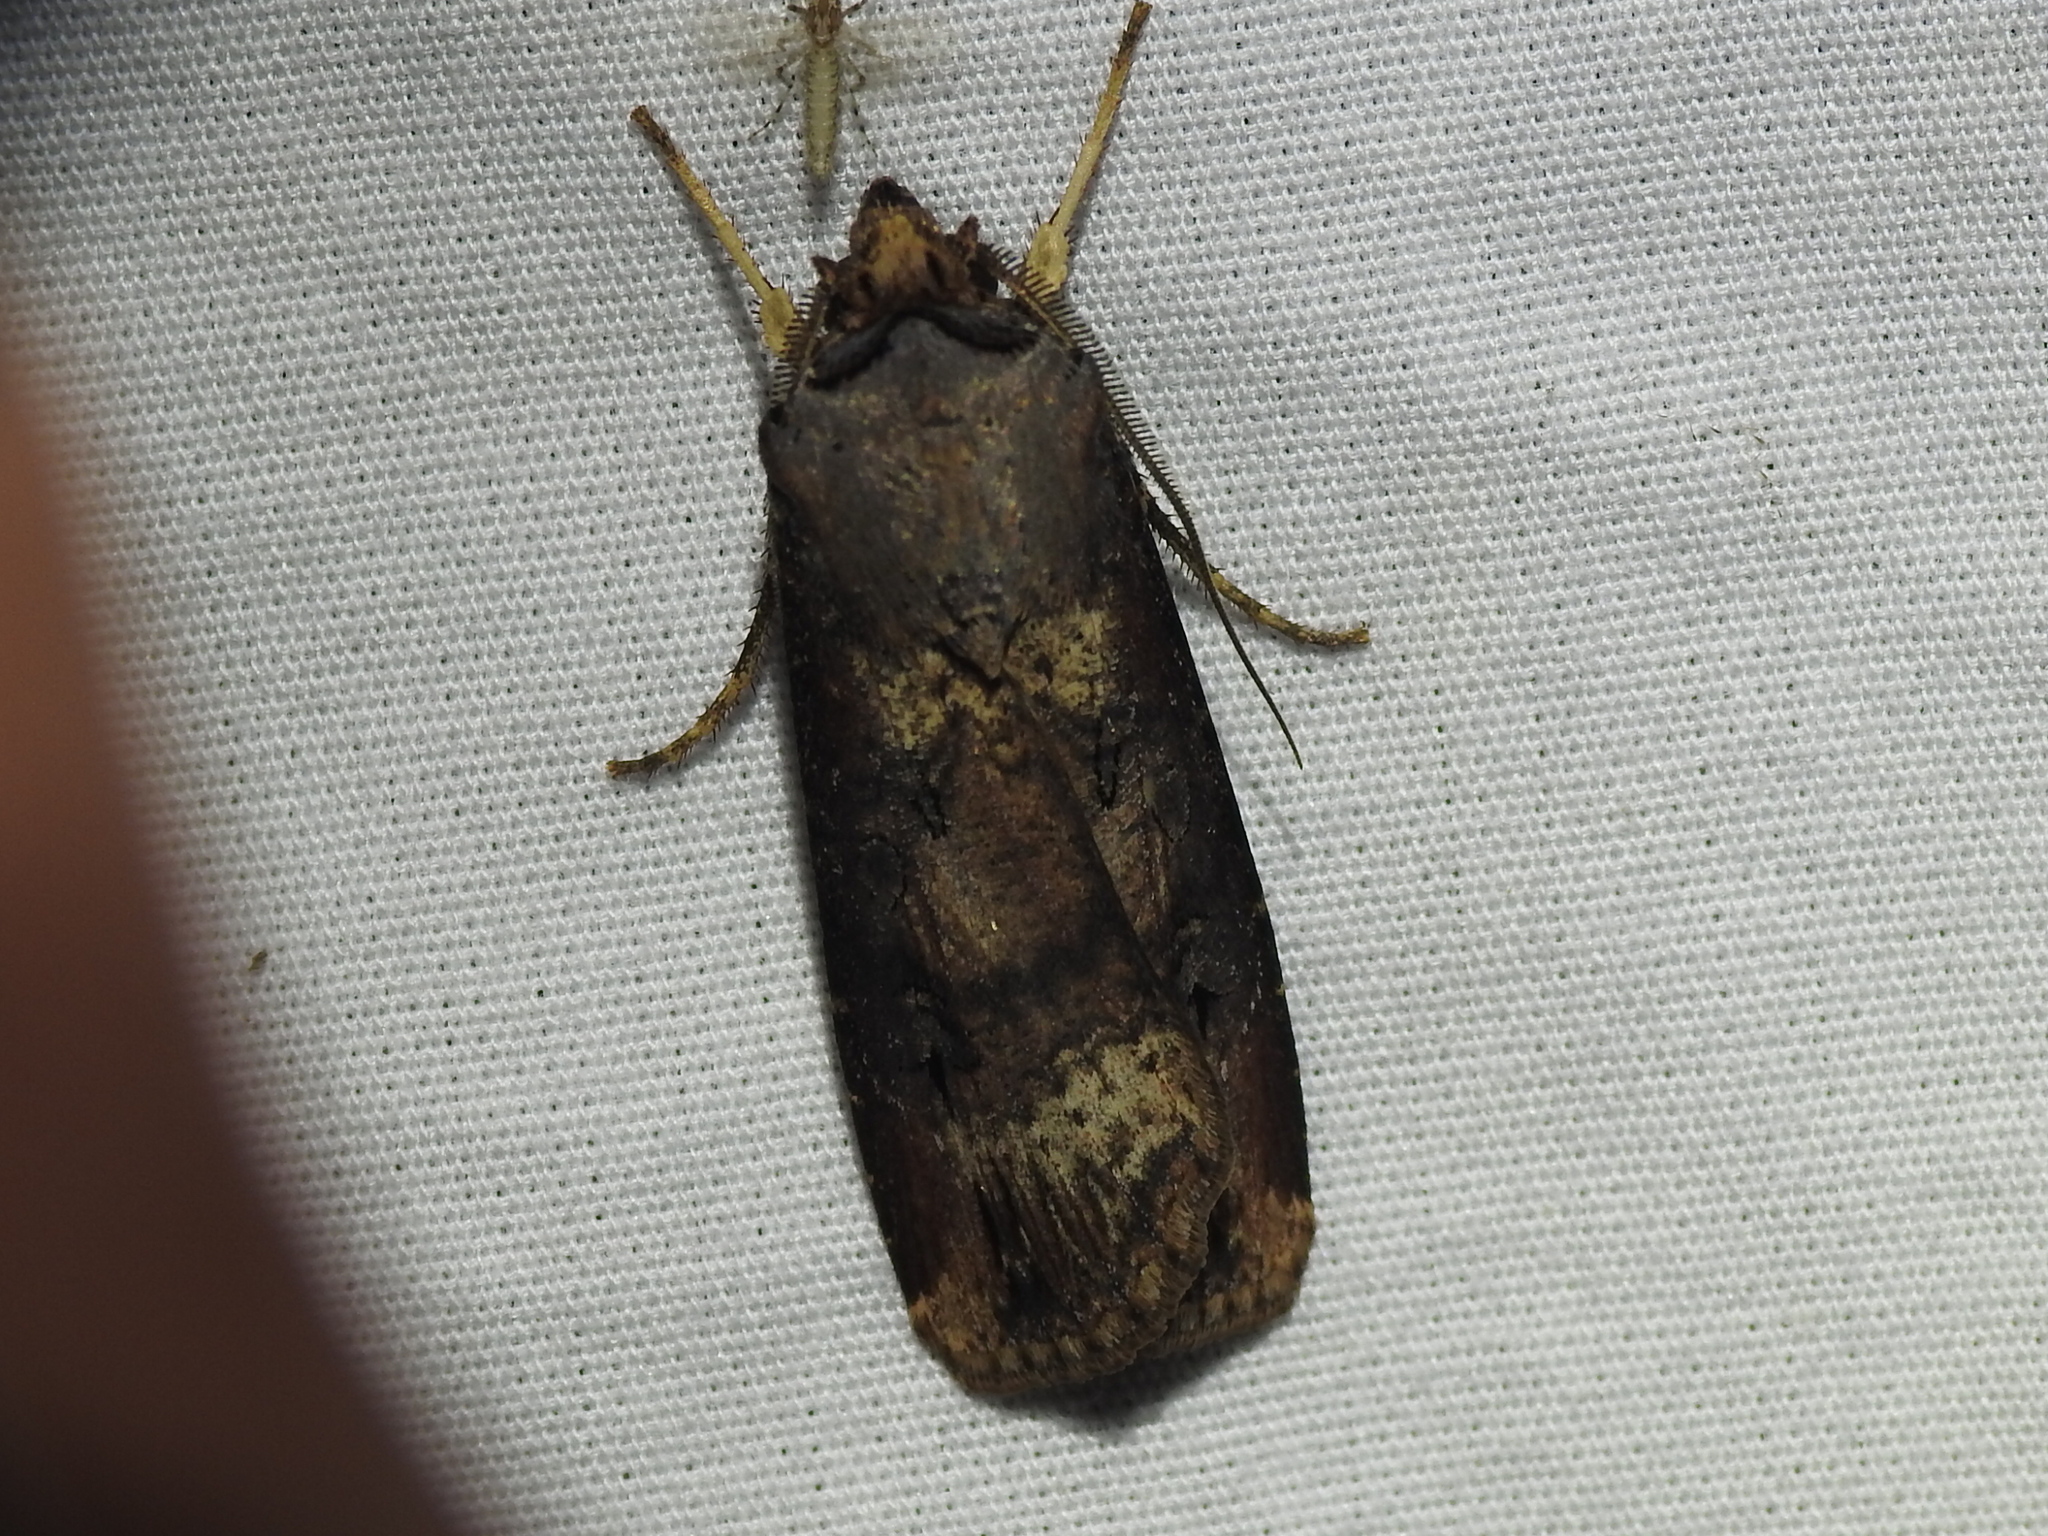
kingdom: Animalia
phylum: Arthropoda
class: Insecta
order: Lepidoptera
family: Noctuidae
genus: Agrotis
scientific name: Agrotis ipsilon
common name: Dark sword-grass
